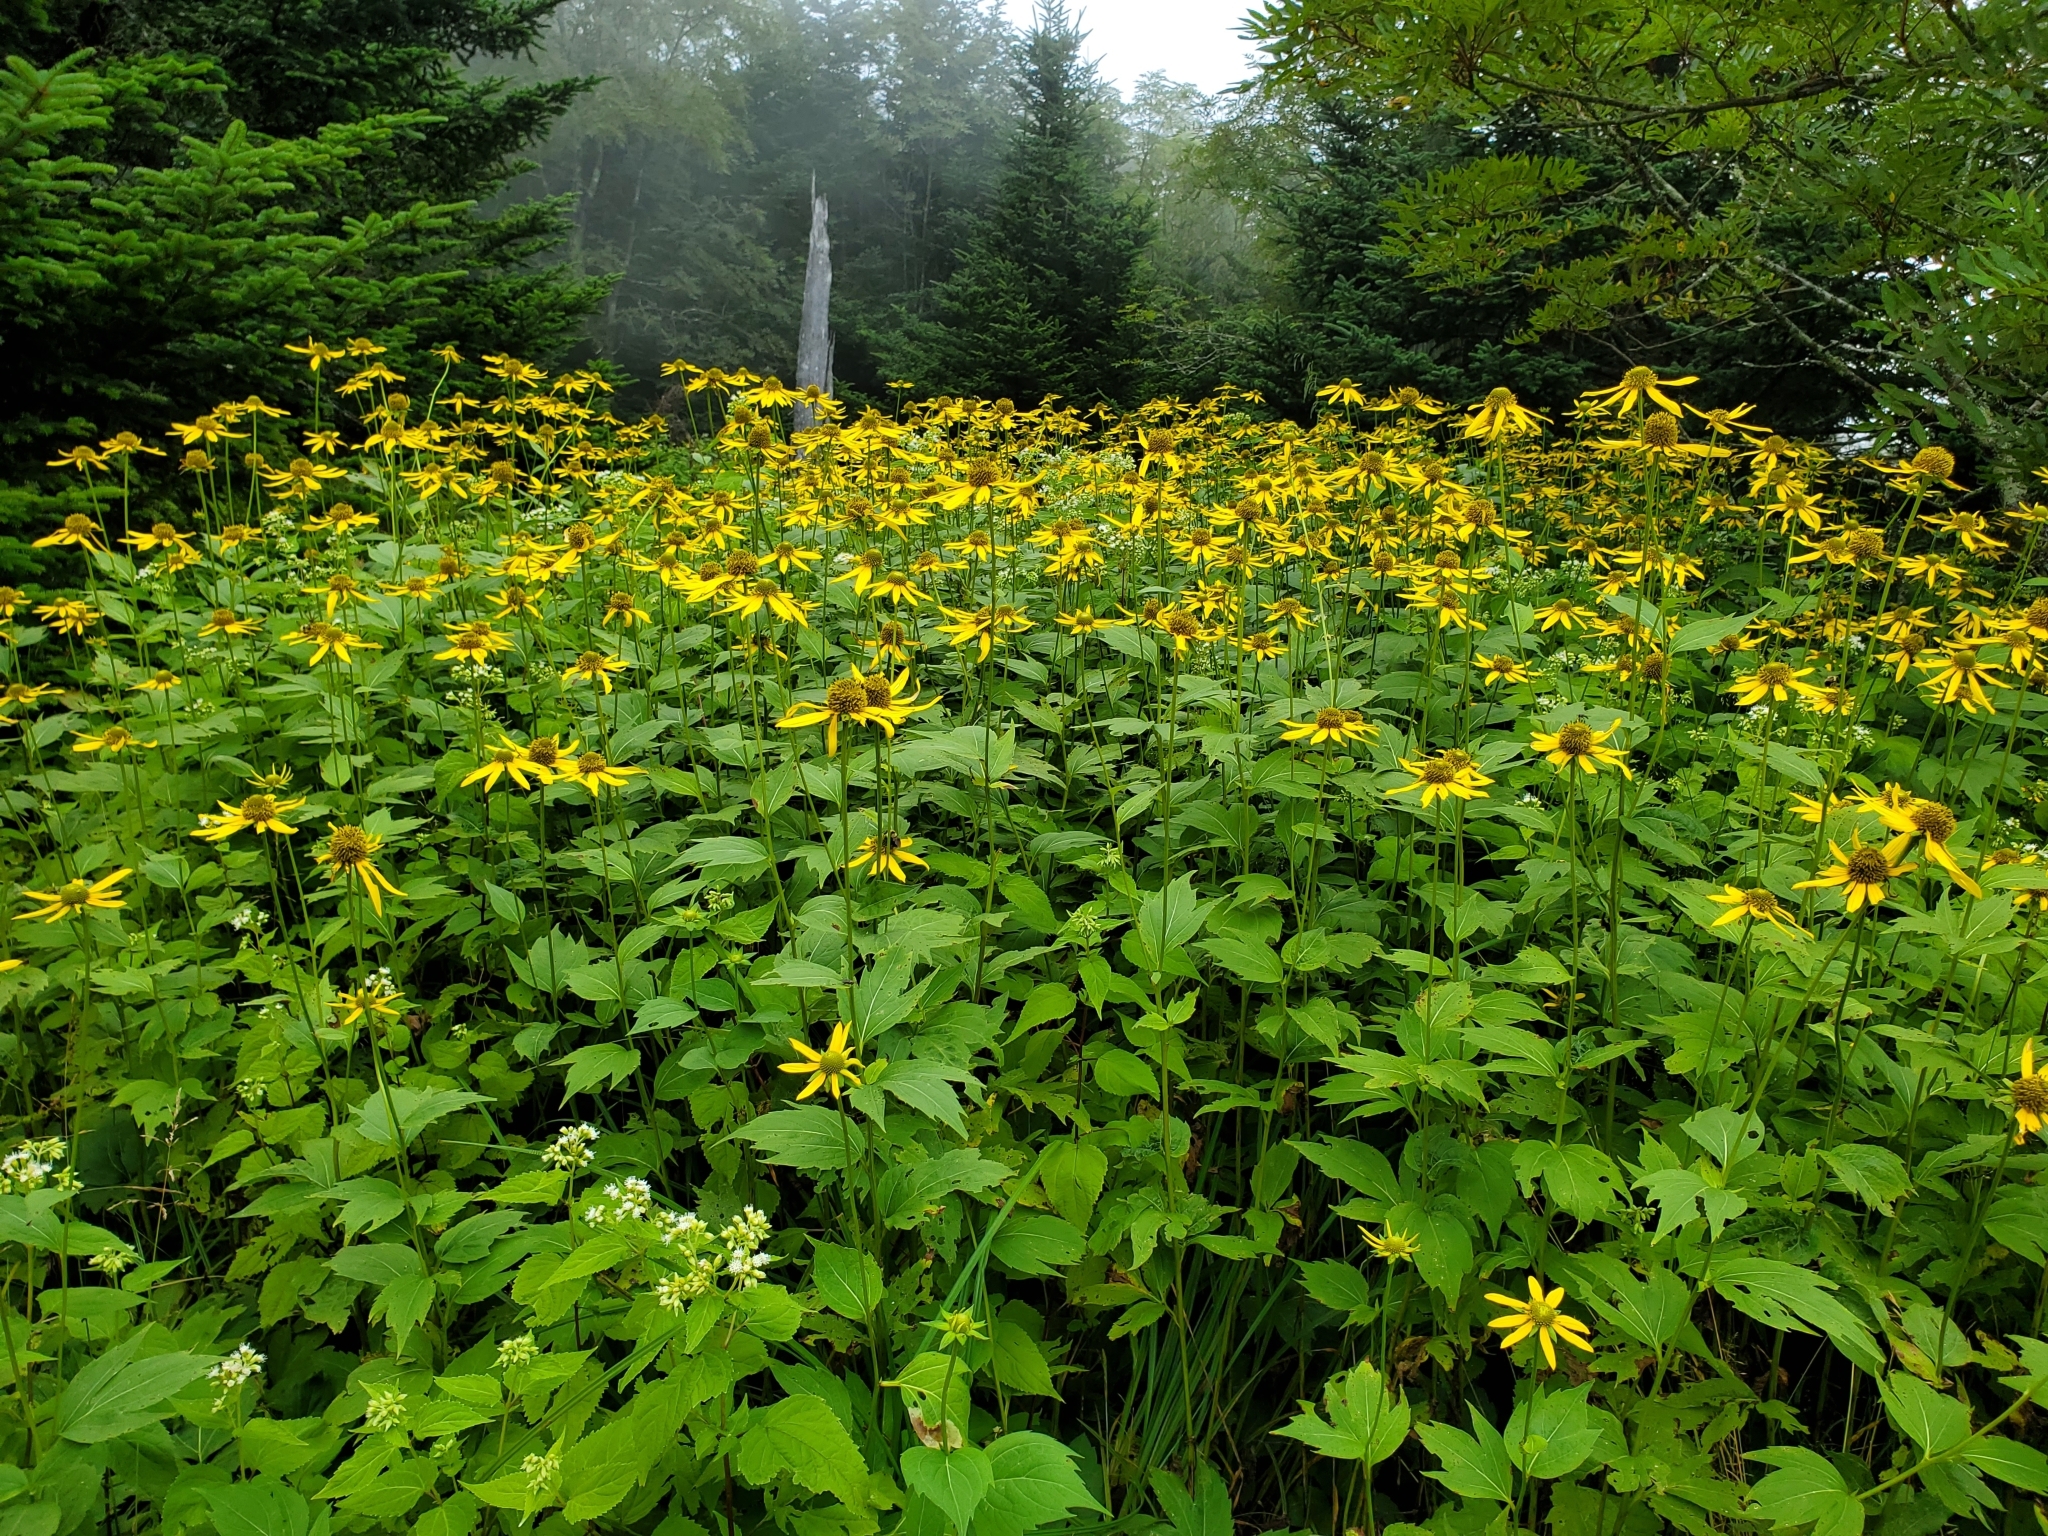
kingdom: Plantae
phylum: Tracheophyta
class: Magnoliopsida
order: Asterales
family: Asteraceae
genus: Rudbeckia
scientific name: Rudbeckia laciniata
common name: Coneflower
